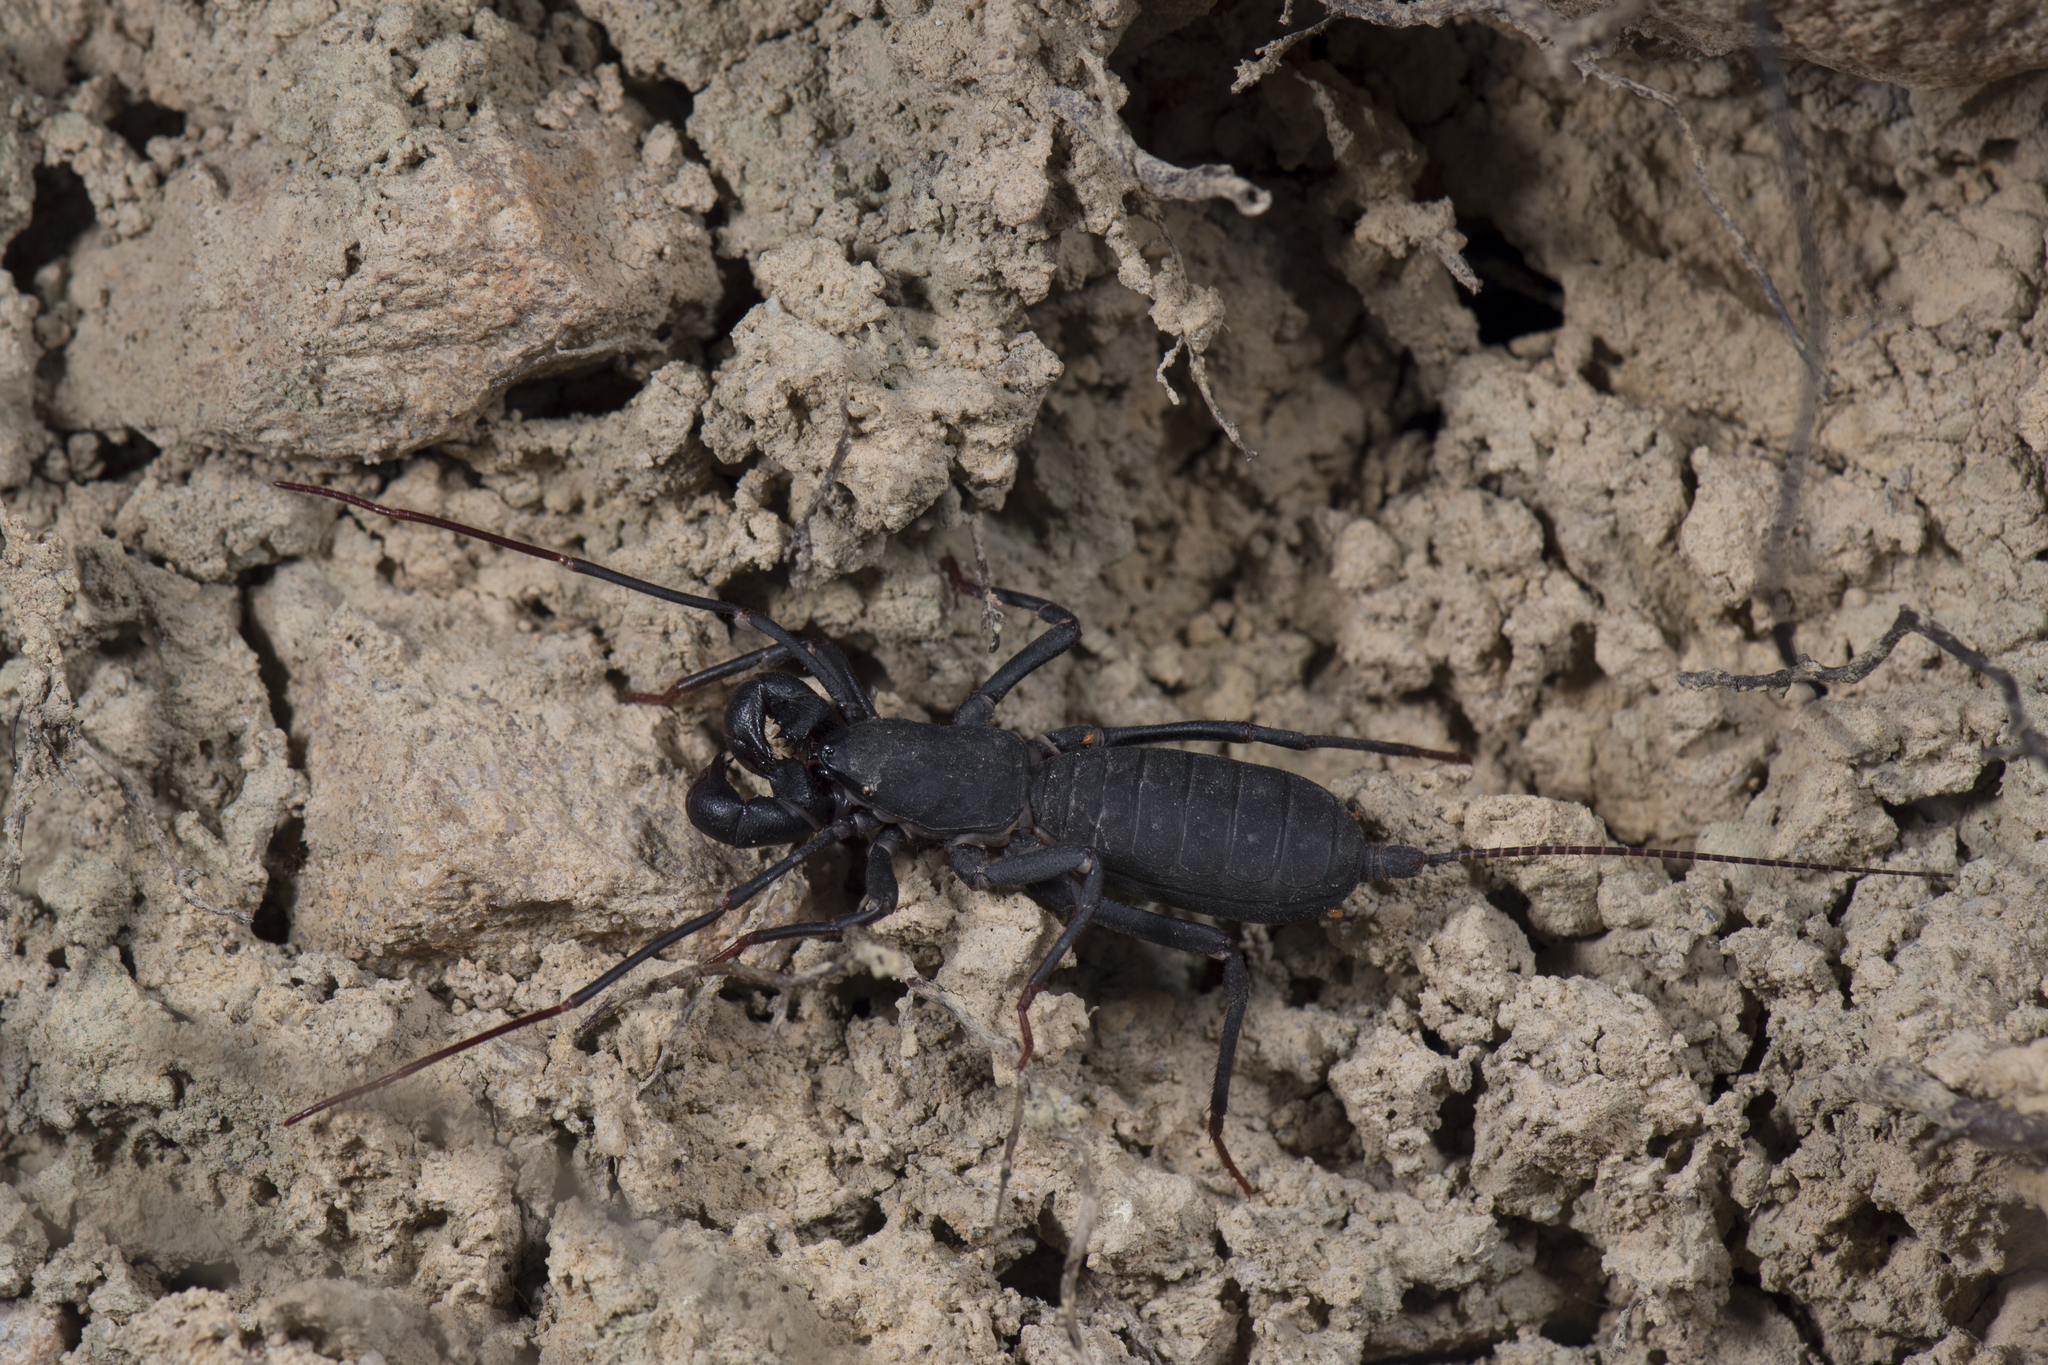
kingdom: Animalia
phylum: Arthropoda
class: Arachnida
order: Uropygi
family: Thelyphonidae
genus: Typopeltis
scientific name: Typopeltis crucifer
